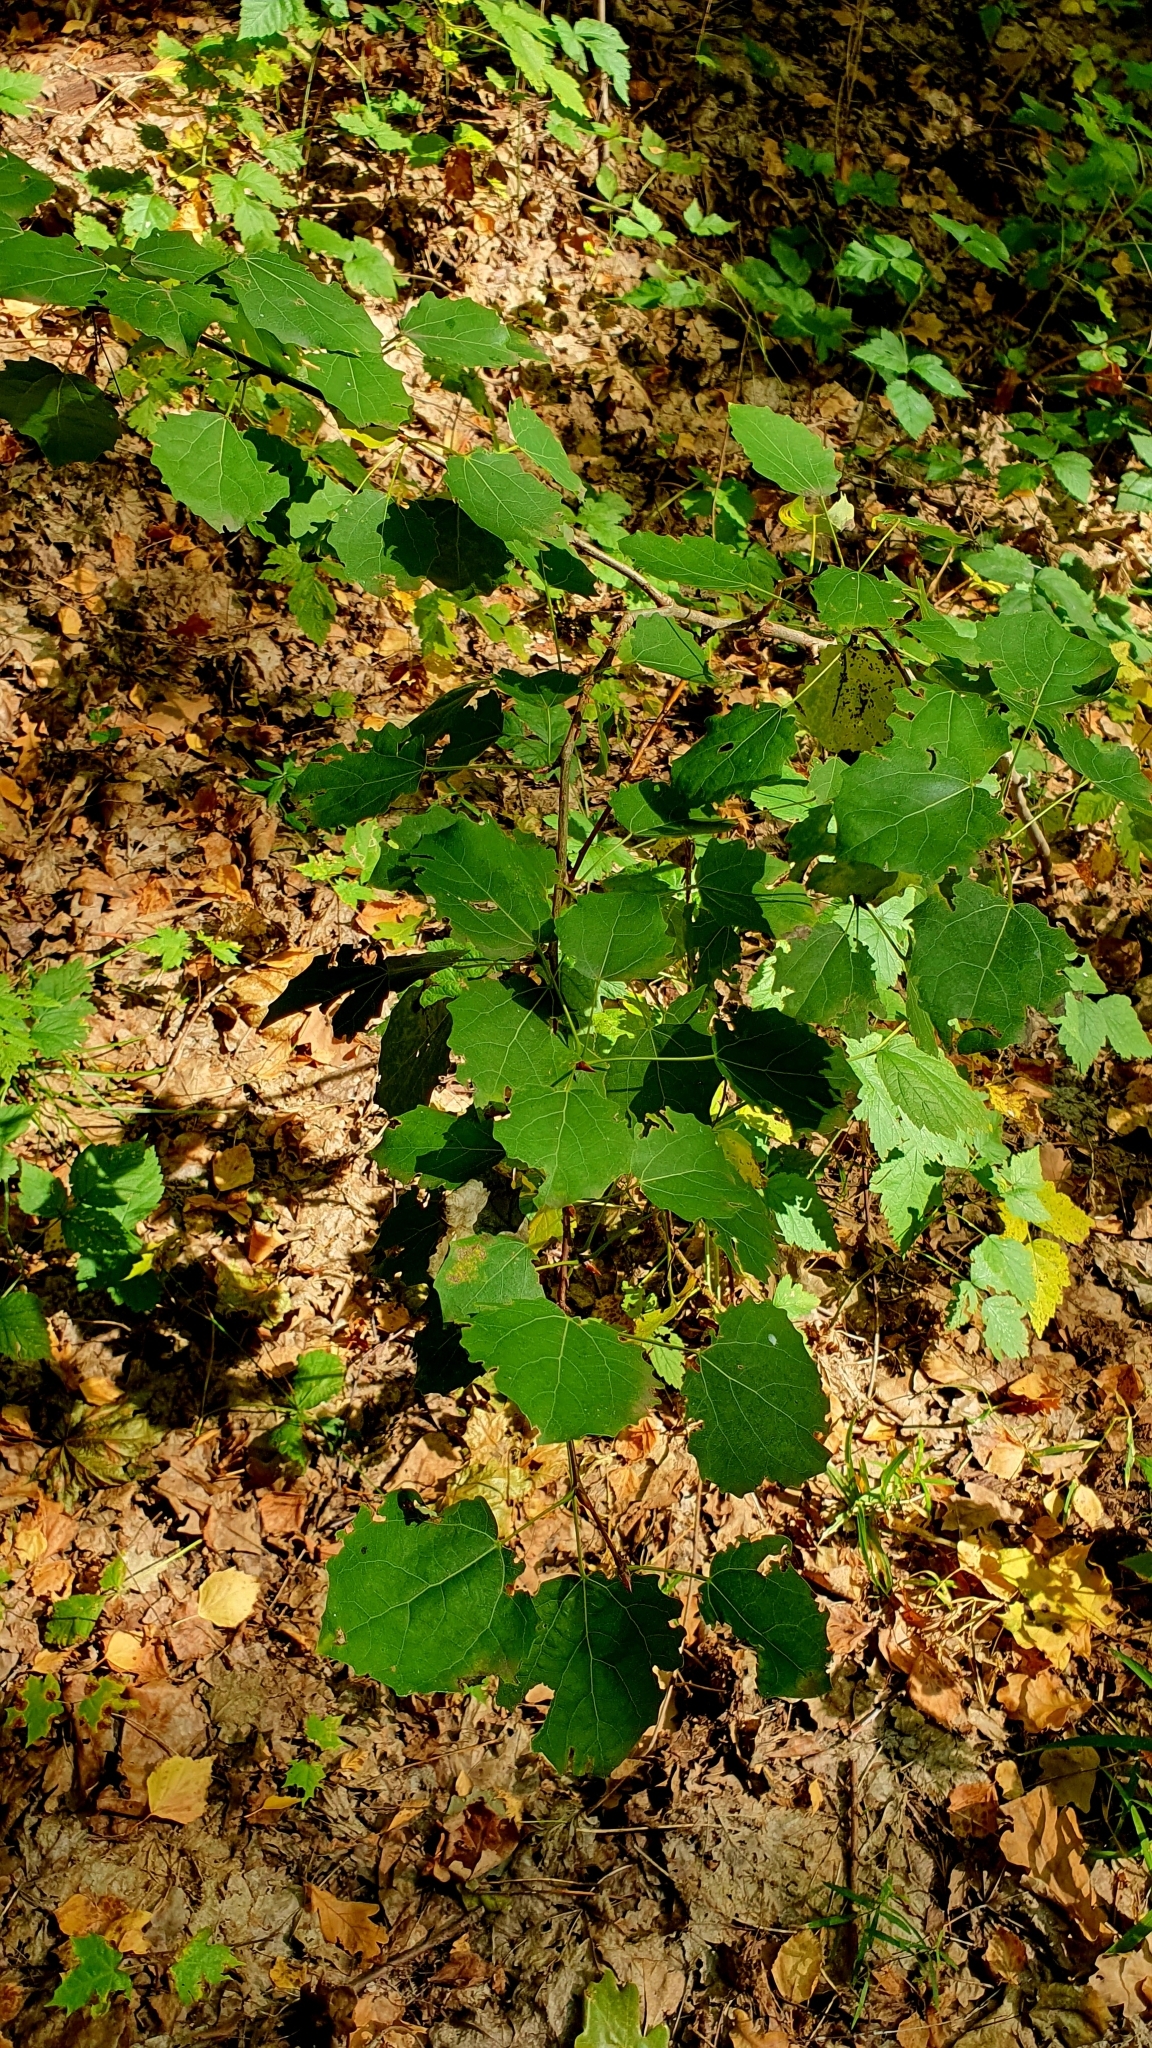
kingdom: Plantae
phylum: Tracheophyta
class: Magnoliopsida
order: Malpighiales
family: Salicaceae
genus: Populus
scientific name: Populus tremula
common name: European aspen
